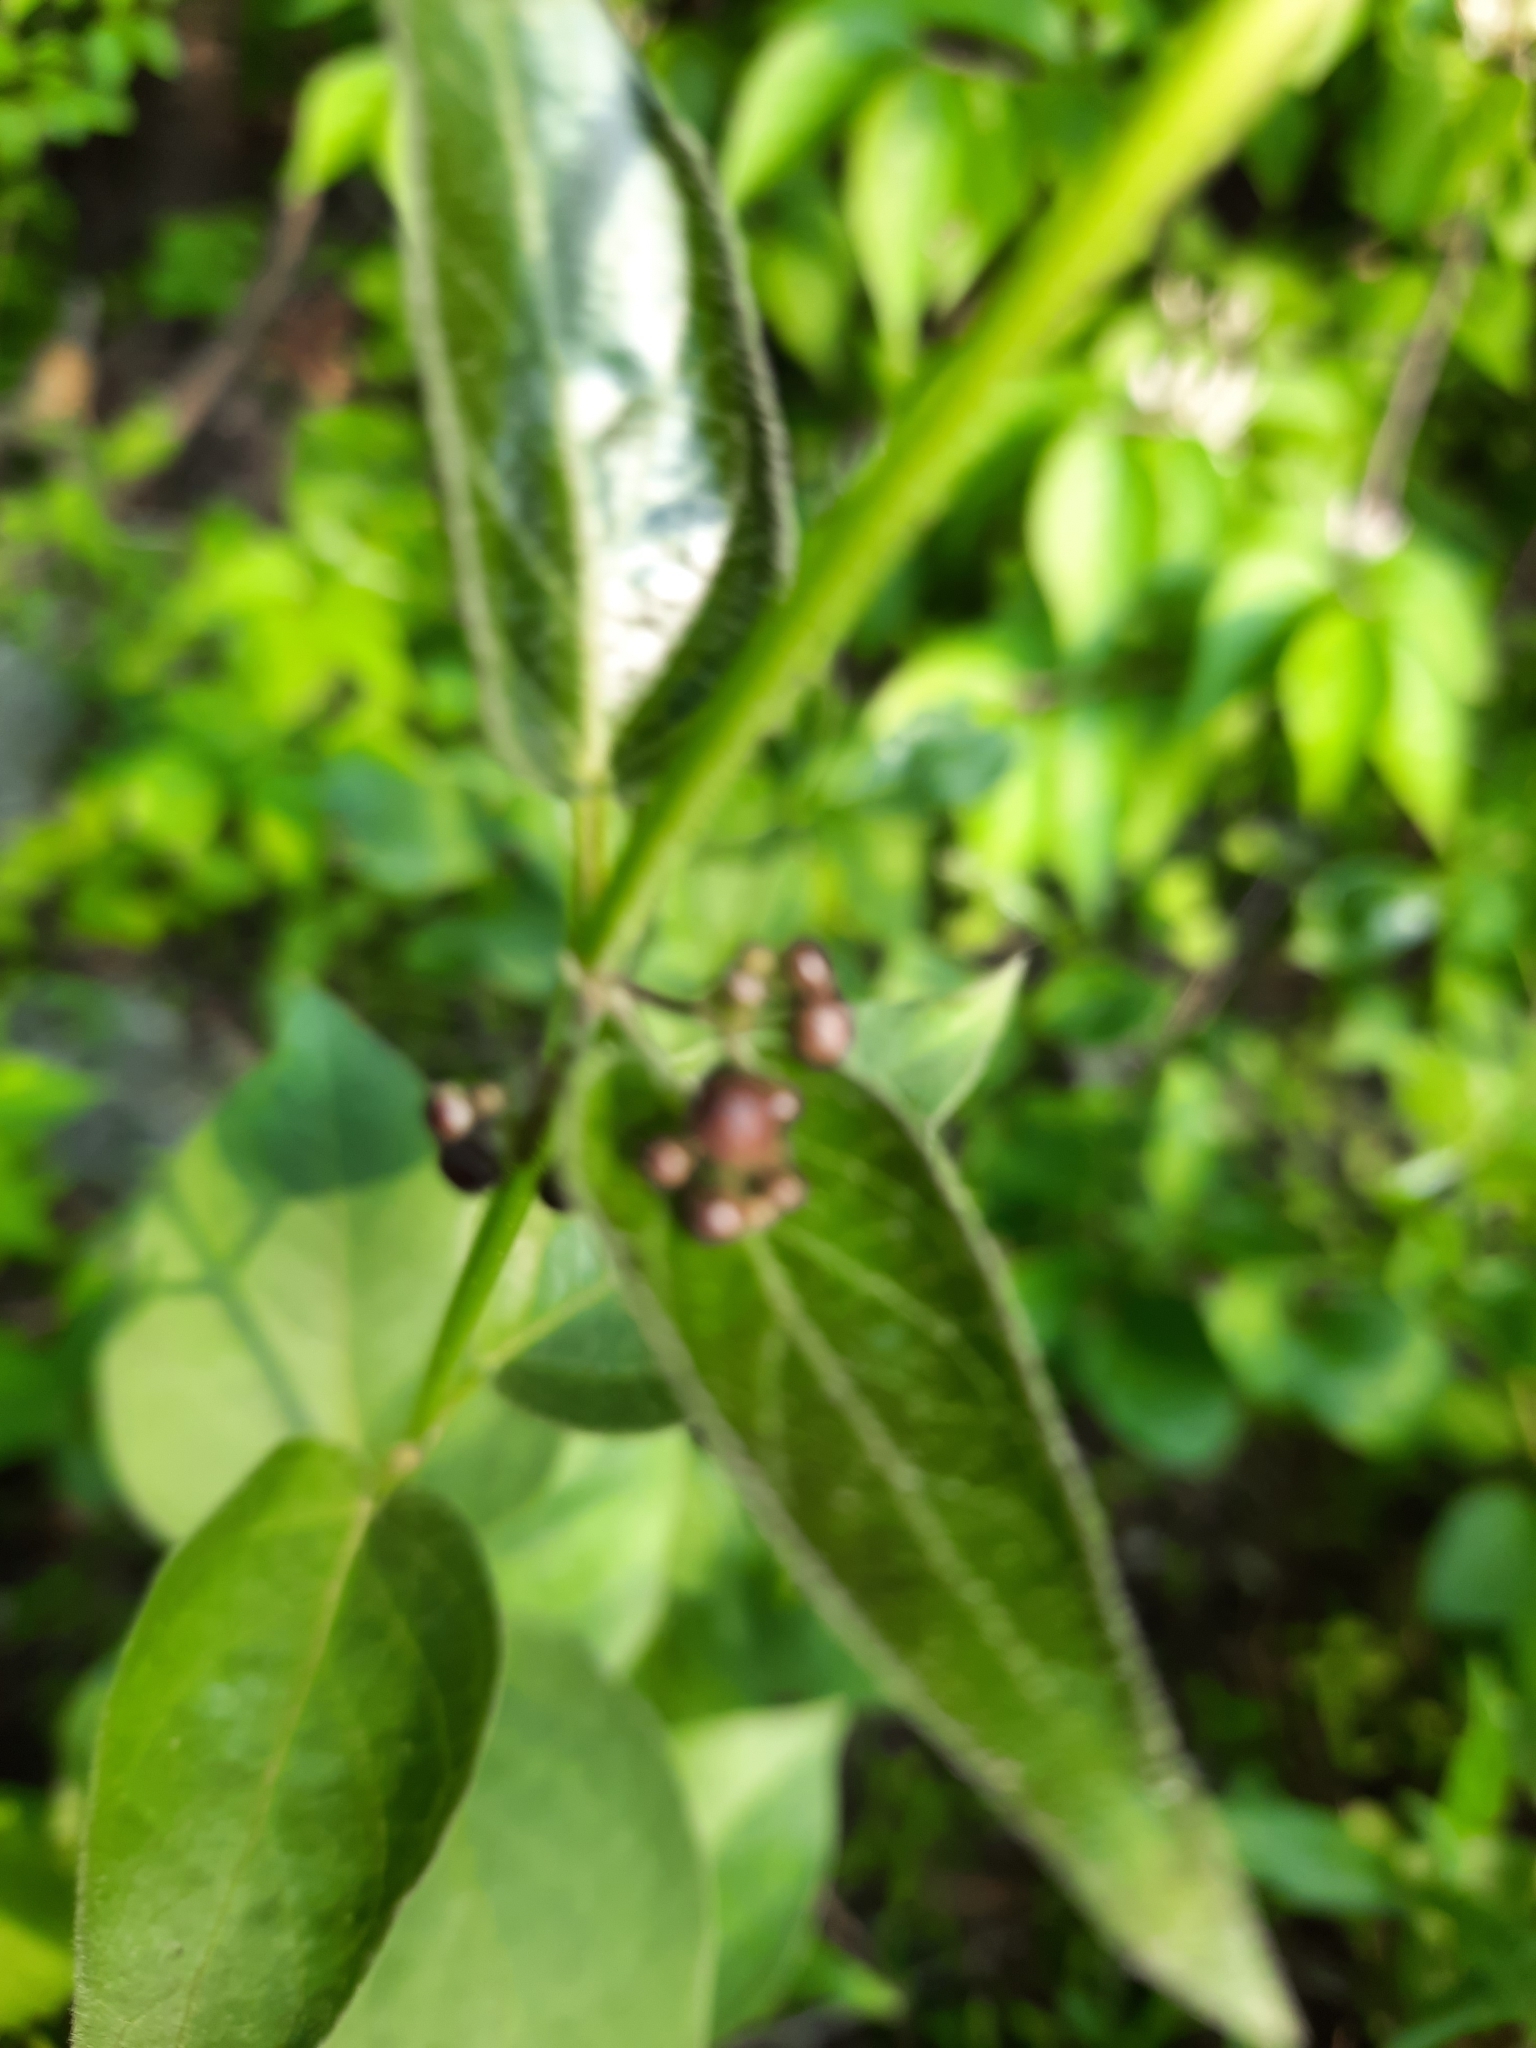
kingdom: Plantae
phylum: Tracheophyta
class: Magnoliopsida
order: Gentianales
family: Apocynaceae
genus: Vincetoxicum
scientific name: Vincetoxicum nigrum
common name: Black swallow-wort
